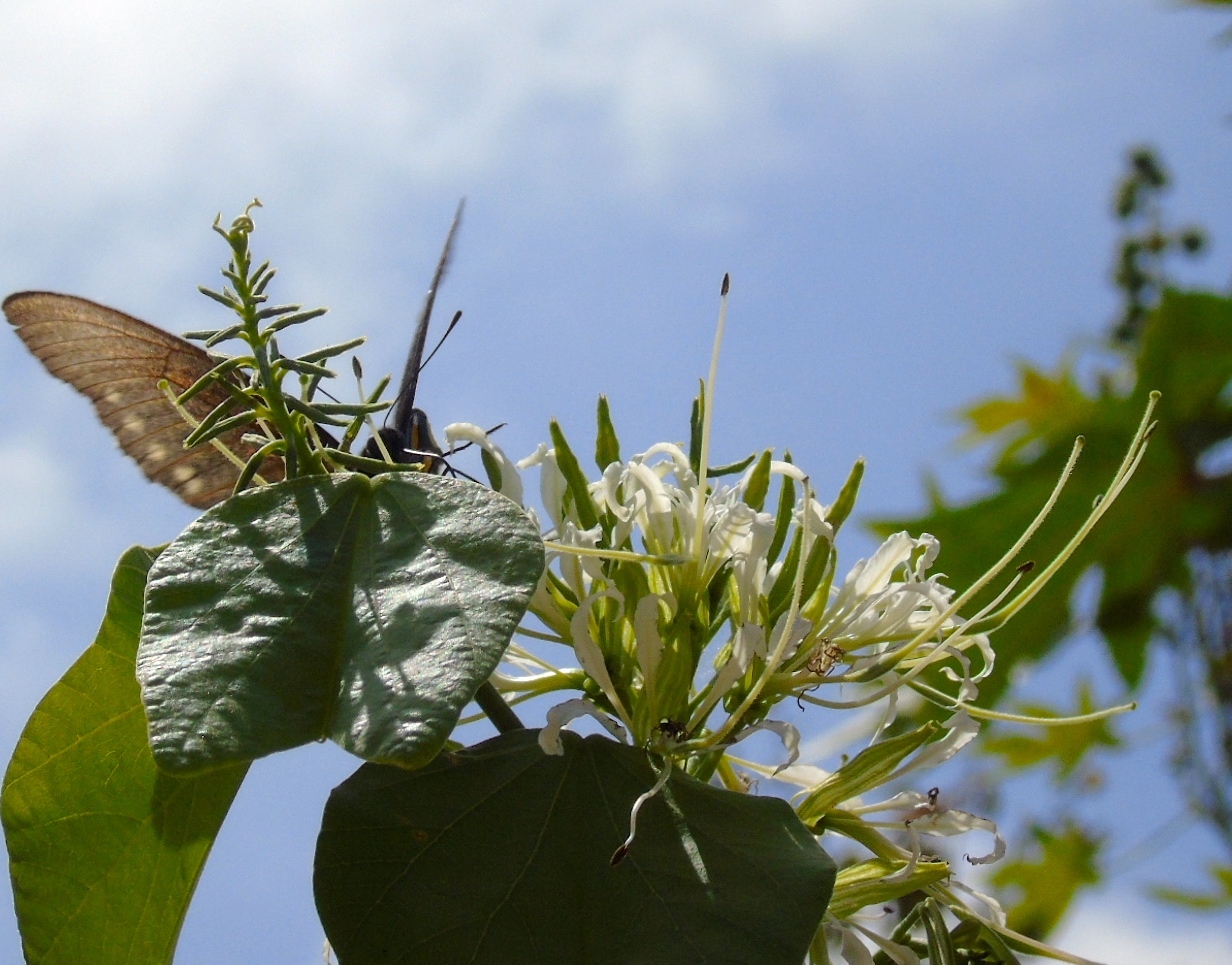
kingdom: Plantae
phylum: Tracheophyta
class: Magnoliopsida
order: Fabales
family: Fabaceae
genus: Bauhinia
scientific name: Bauhinia divaricata
